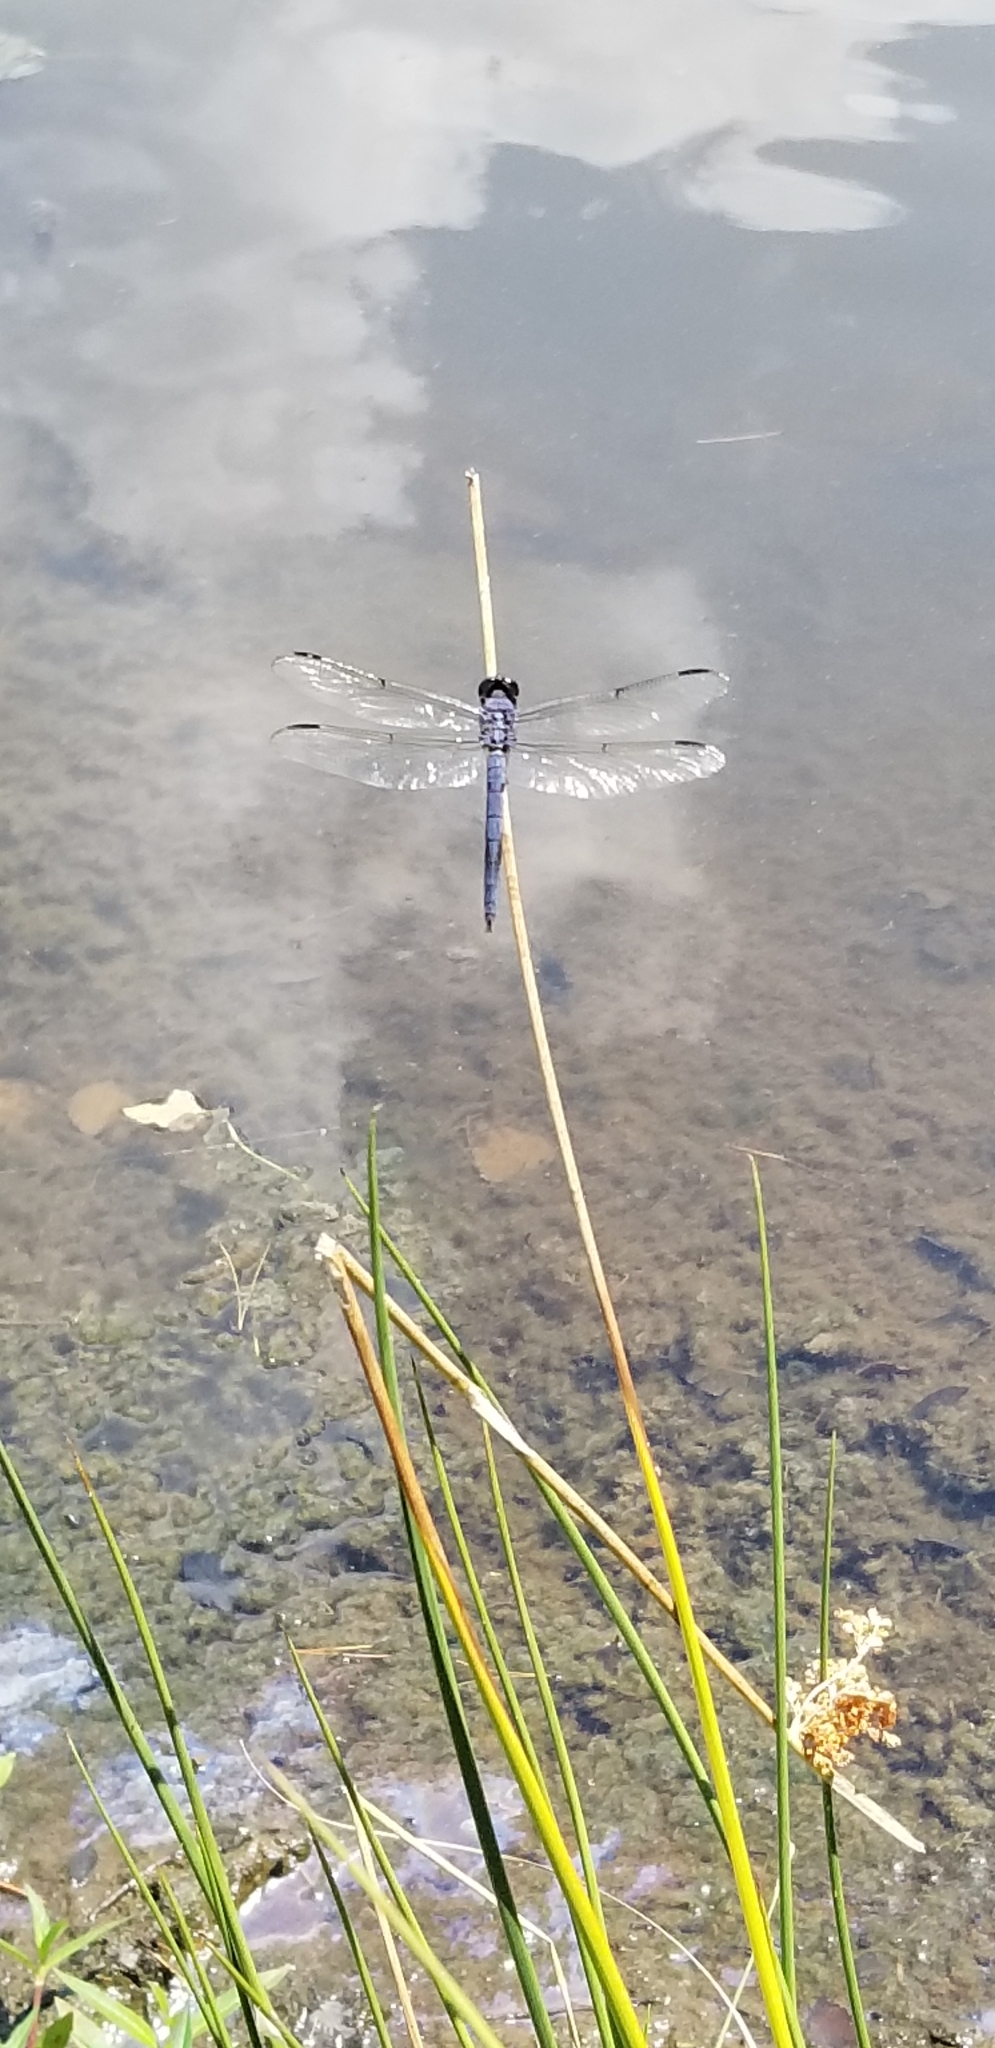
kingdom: Animalia
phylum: Arthropoda
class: Insecta
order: Odonata
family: Libellulidae
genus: Libellula
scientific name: Libellula incesta
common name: Slaty skimmer
